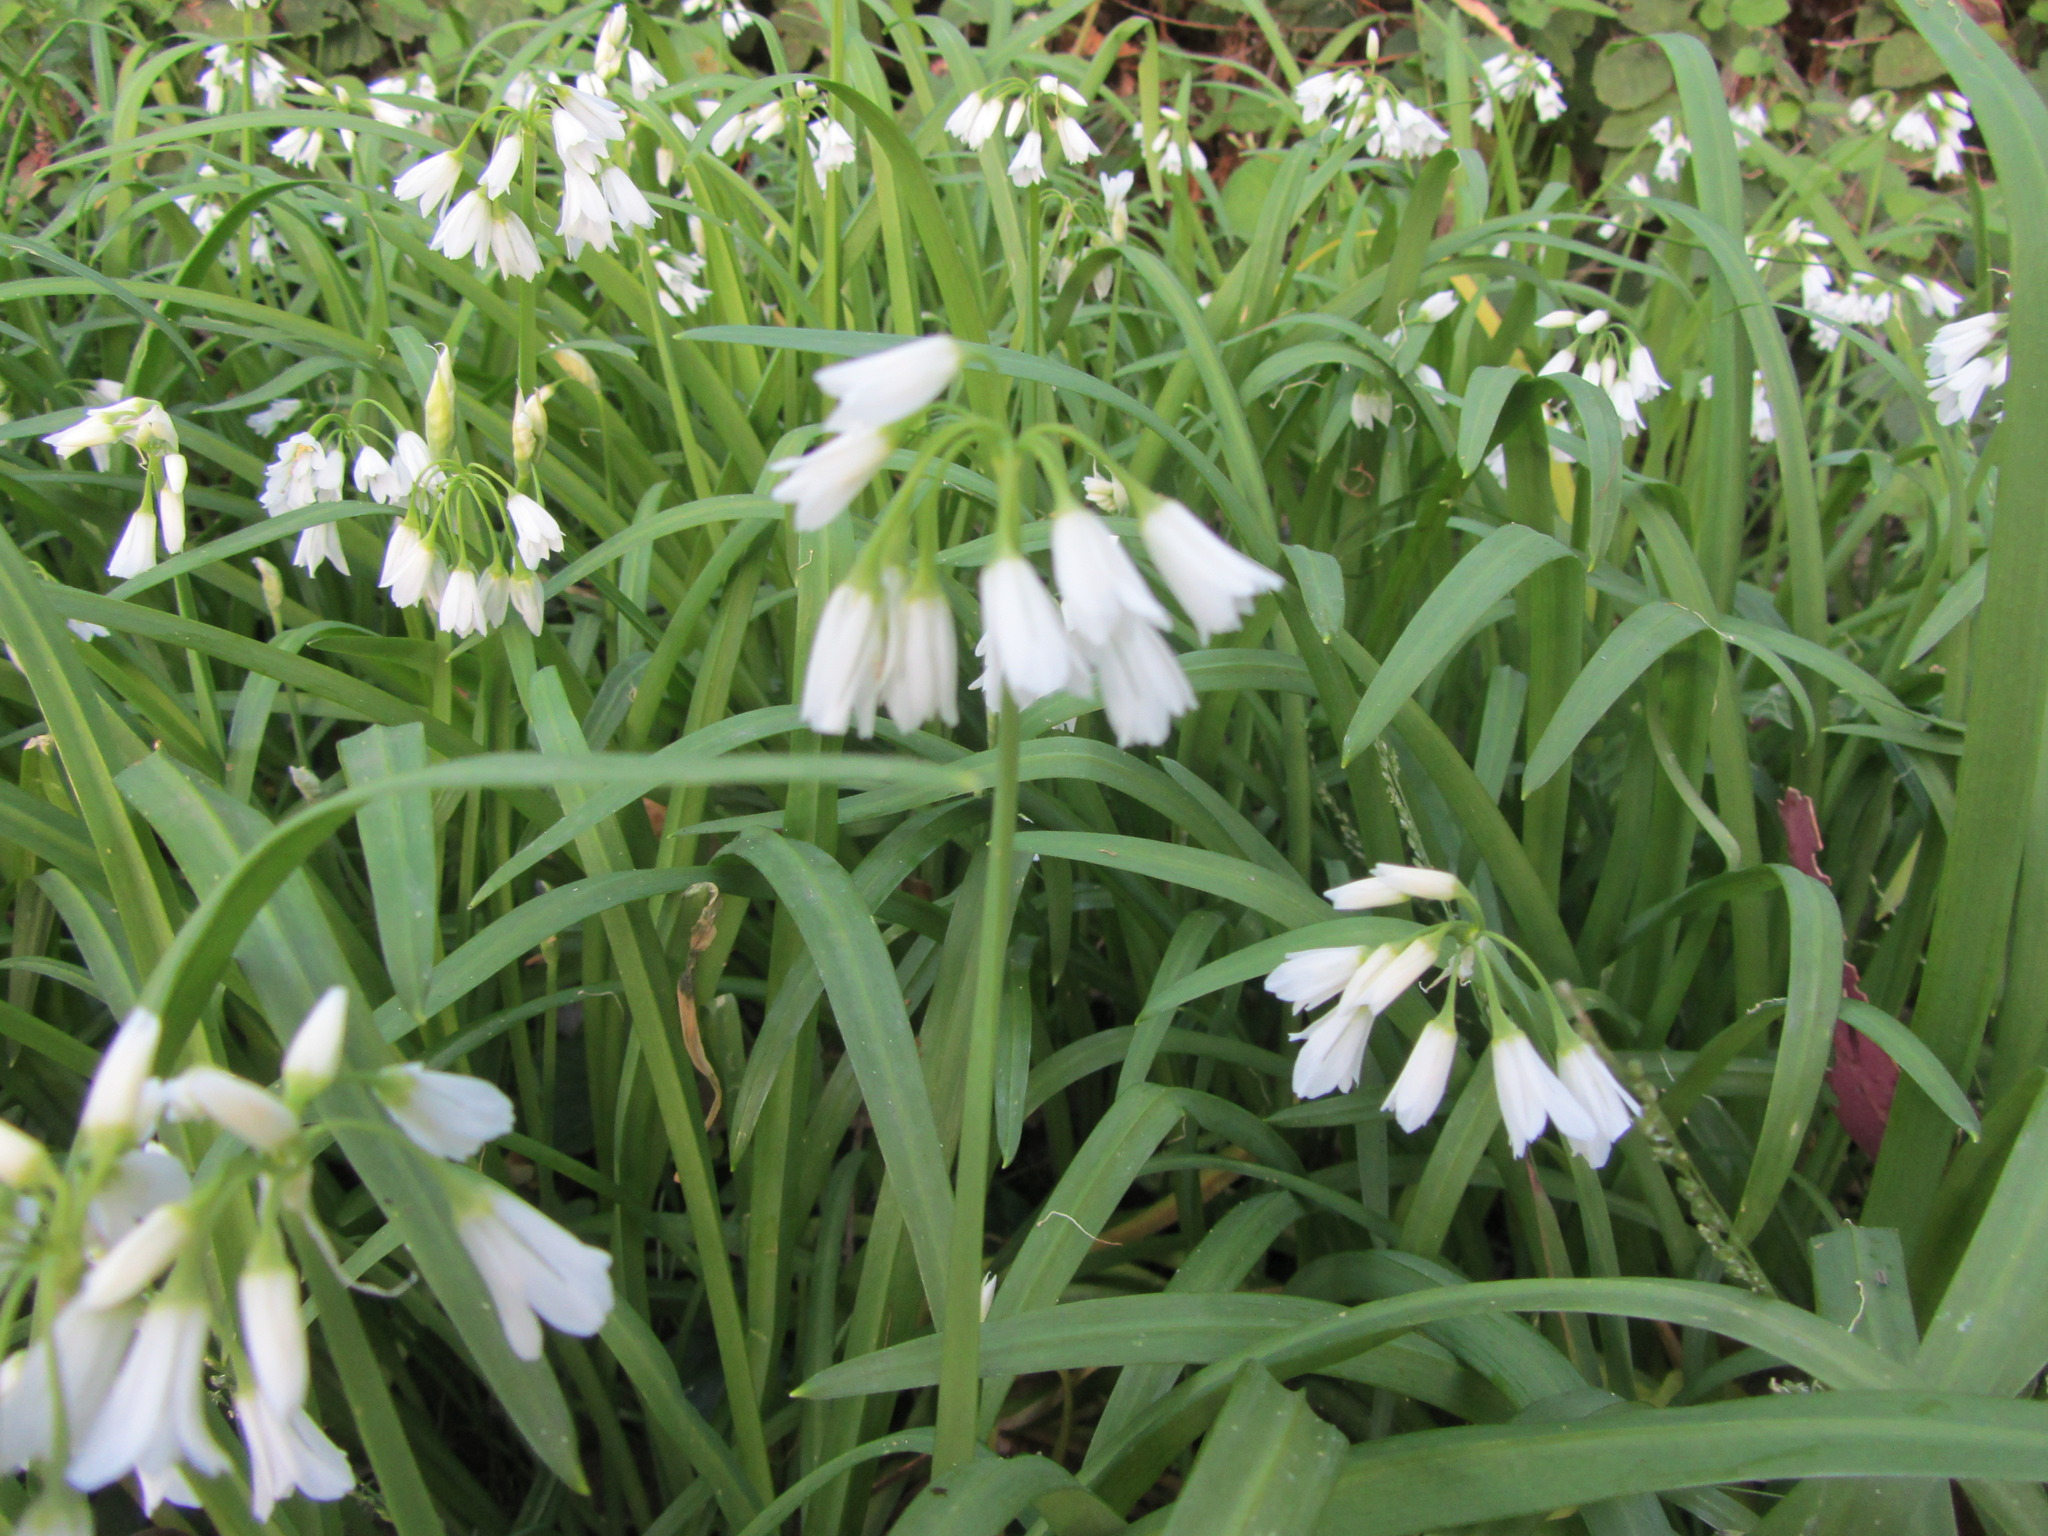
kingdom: Plantae
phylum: Tracheophyta
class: Liliopsida
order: Asparagales
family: Amaryllidaceae
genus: Allium
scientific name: Allium triquetrum
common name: Three-cornered garlic
